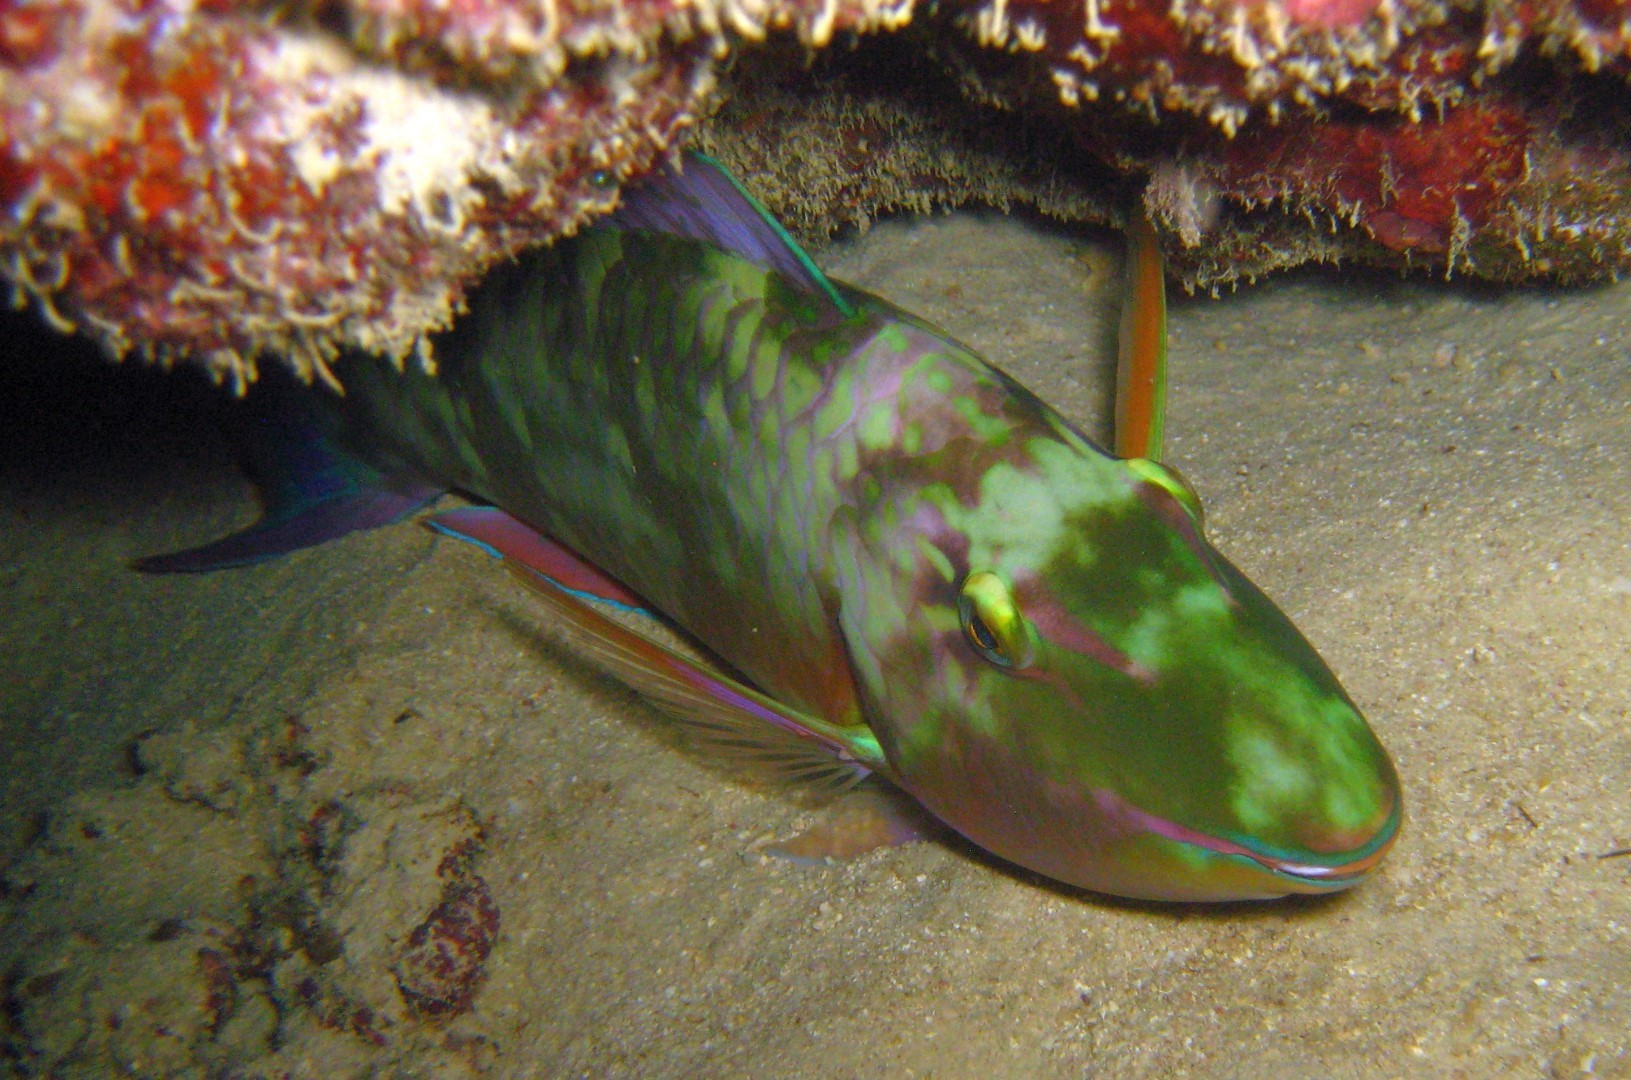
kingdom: Animalia
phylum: Chordata
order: Perciformes
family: Scaridae
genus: Hipposcarus
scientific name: Hipposcarus harid
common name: Candelamoa parrotfish
